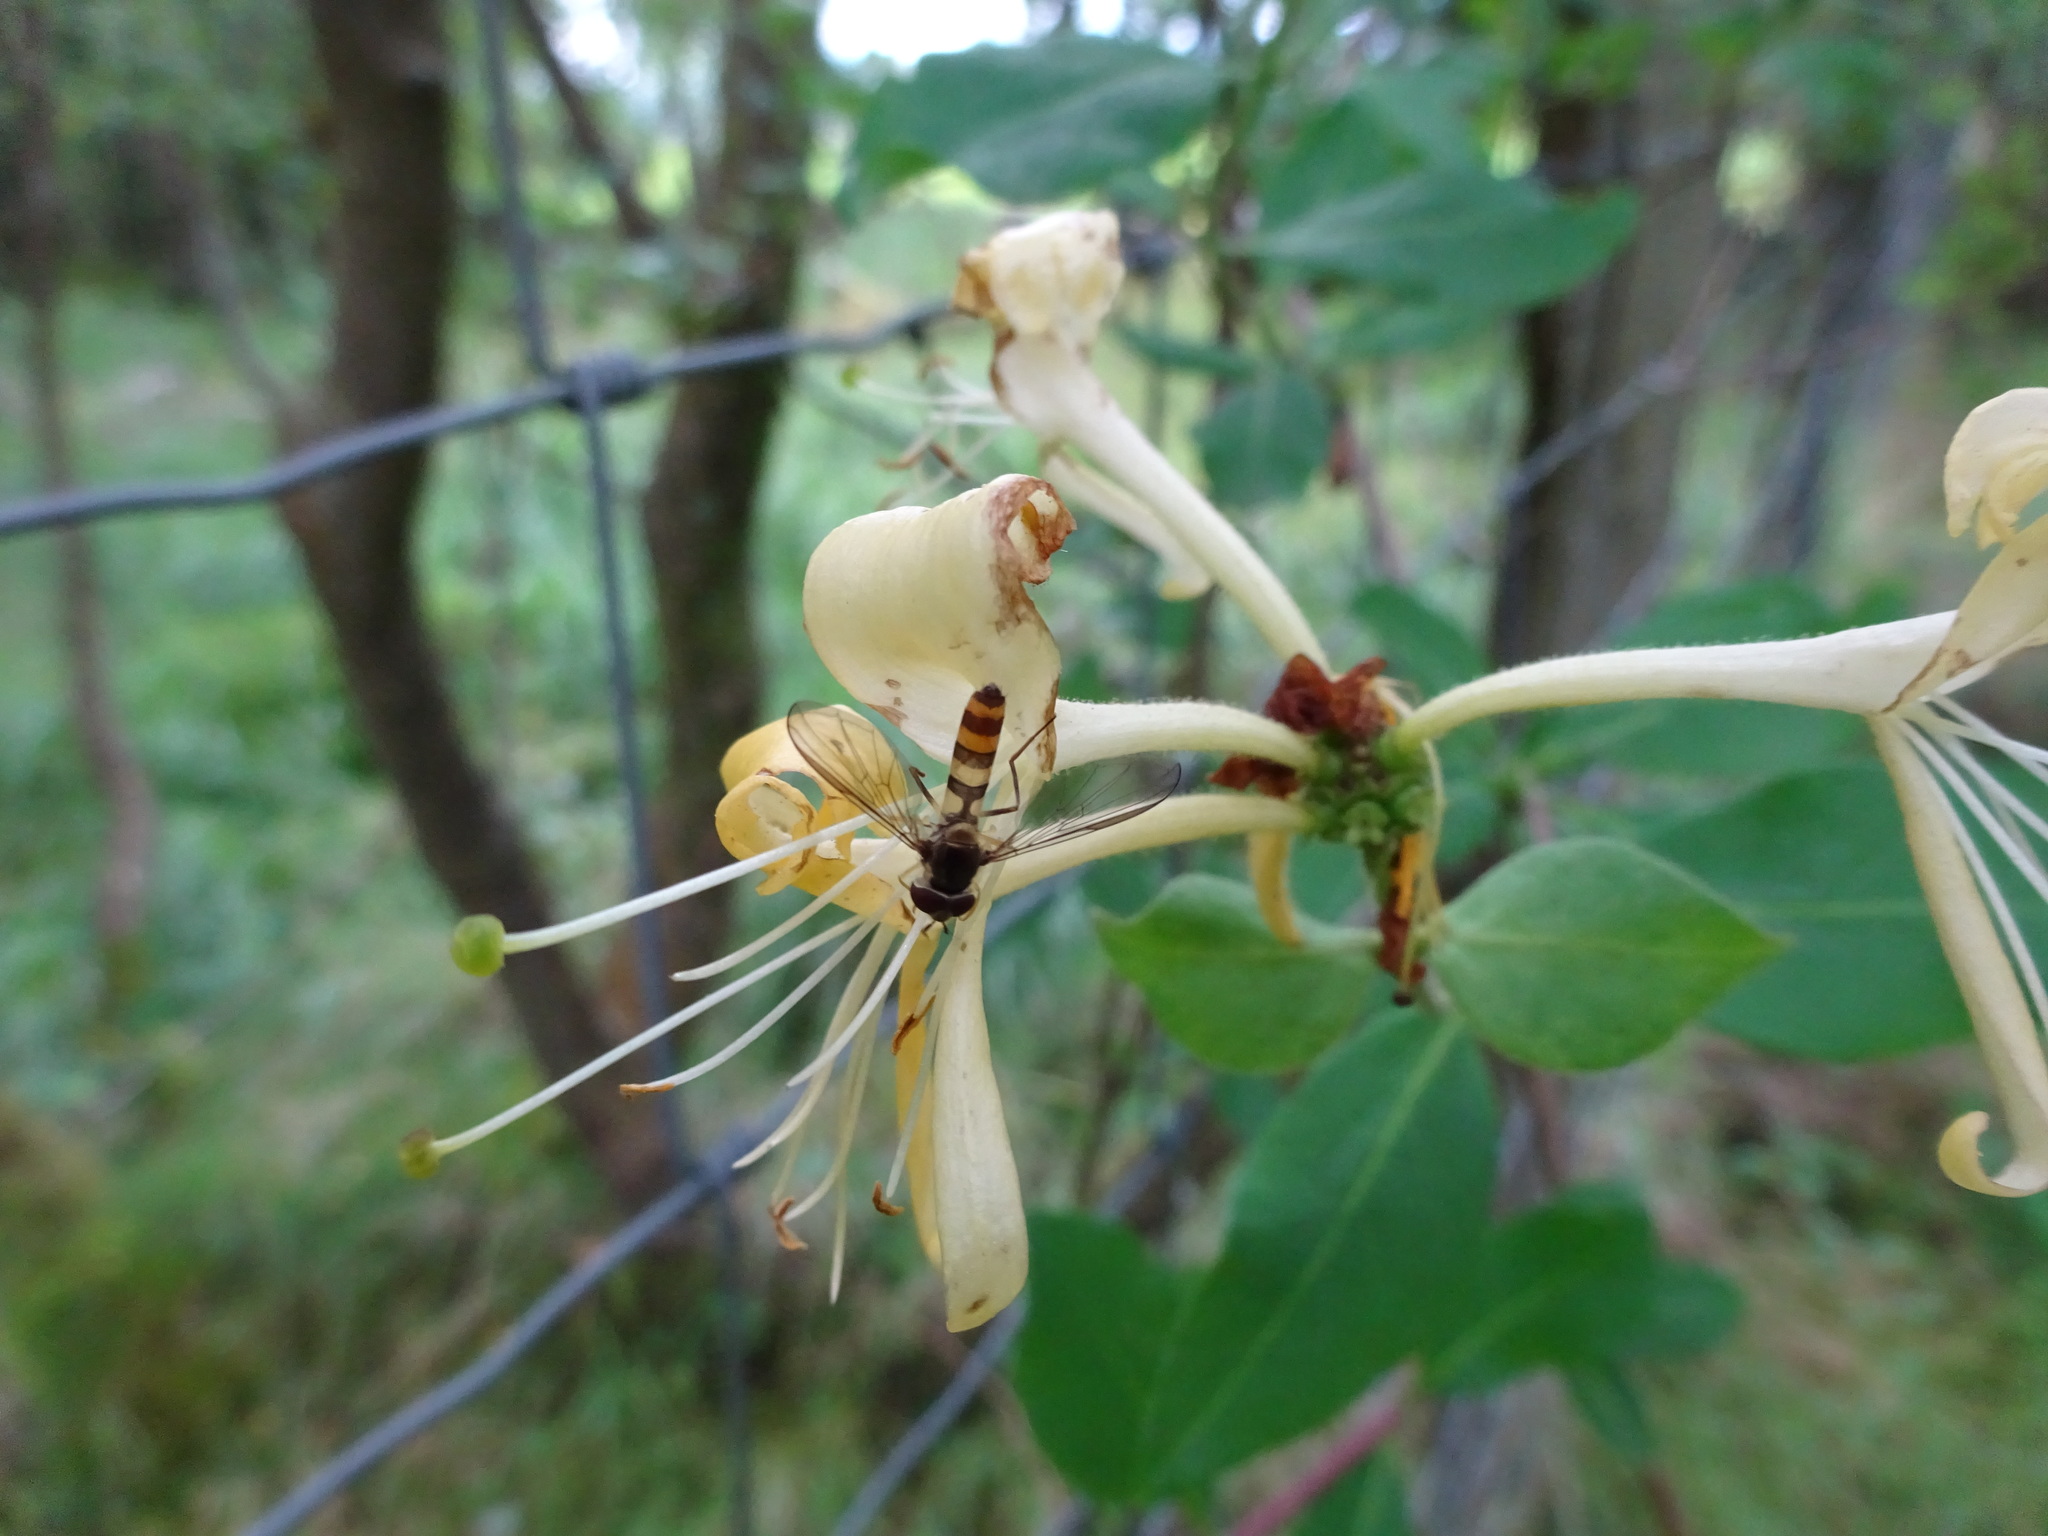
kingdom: Animalia
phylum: Arthropoda
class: Insecta
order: Diptera
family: Syrphidae
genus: Meliscaeva
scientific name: Meliscaeva cinctella
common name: American thintail fly
